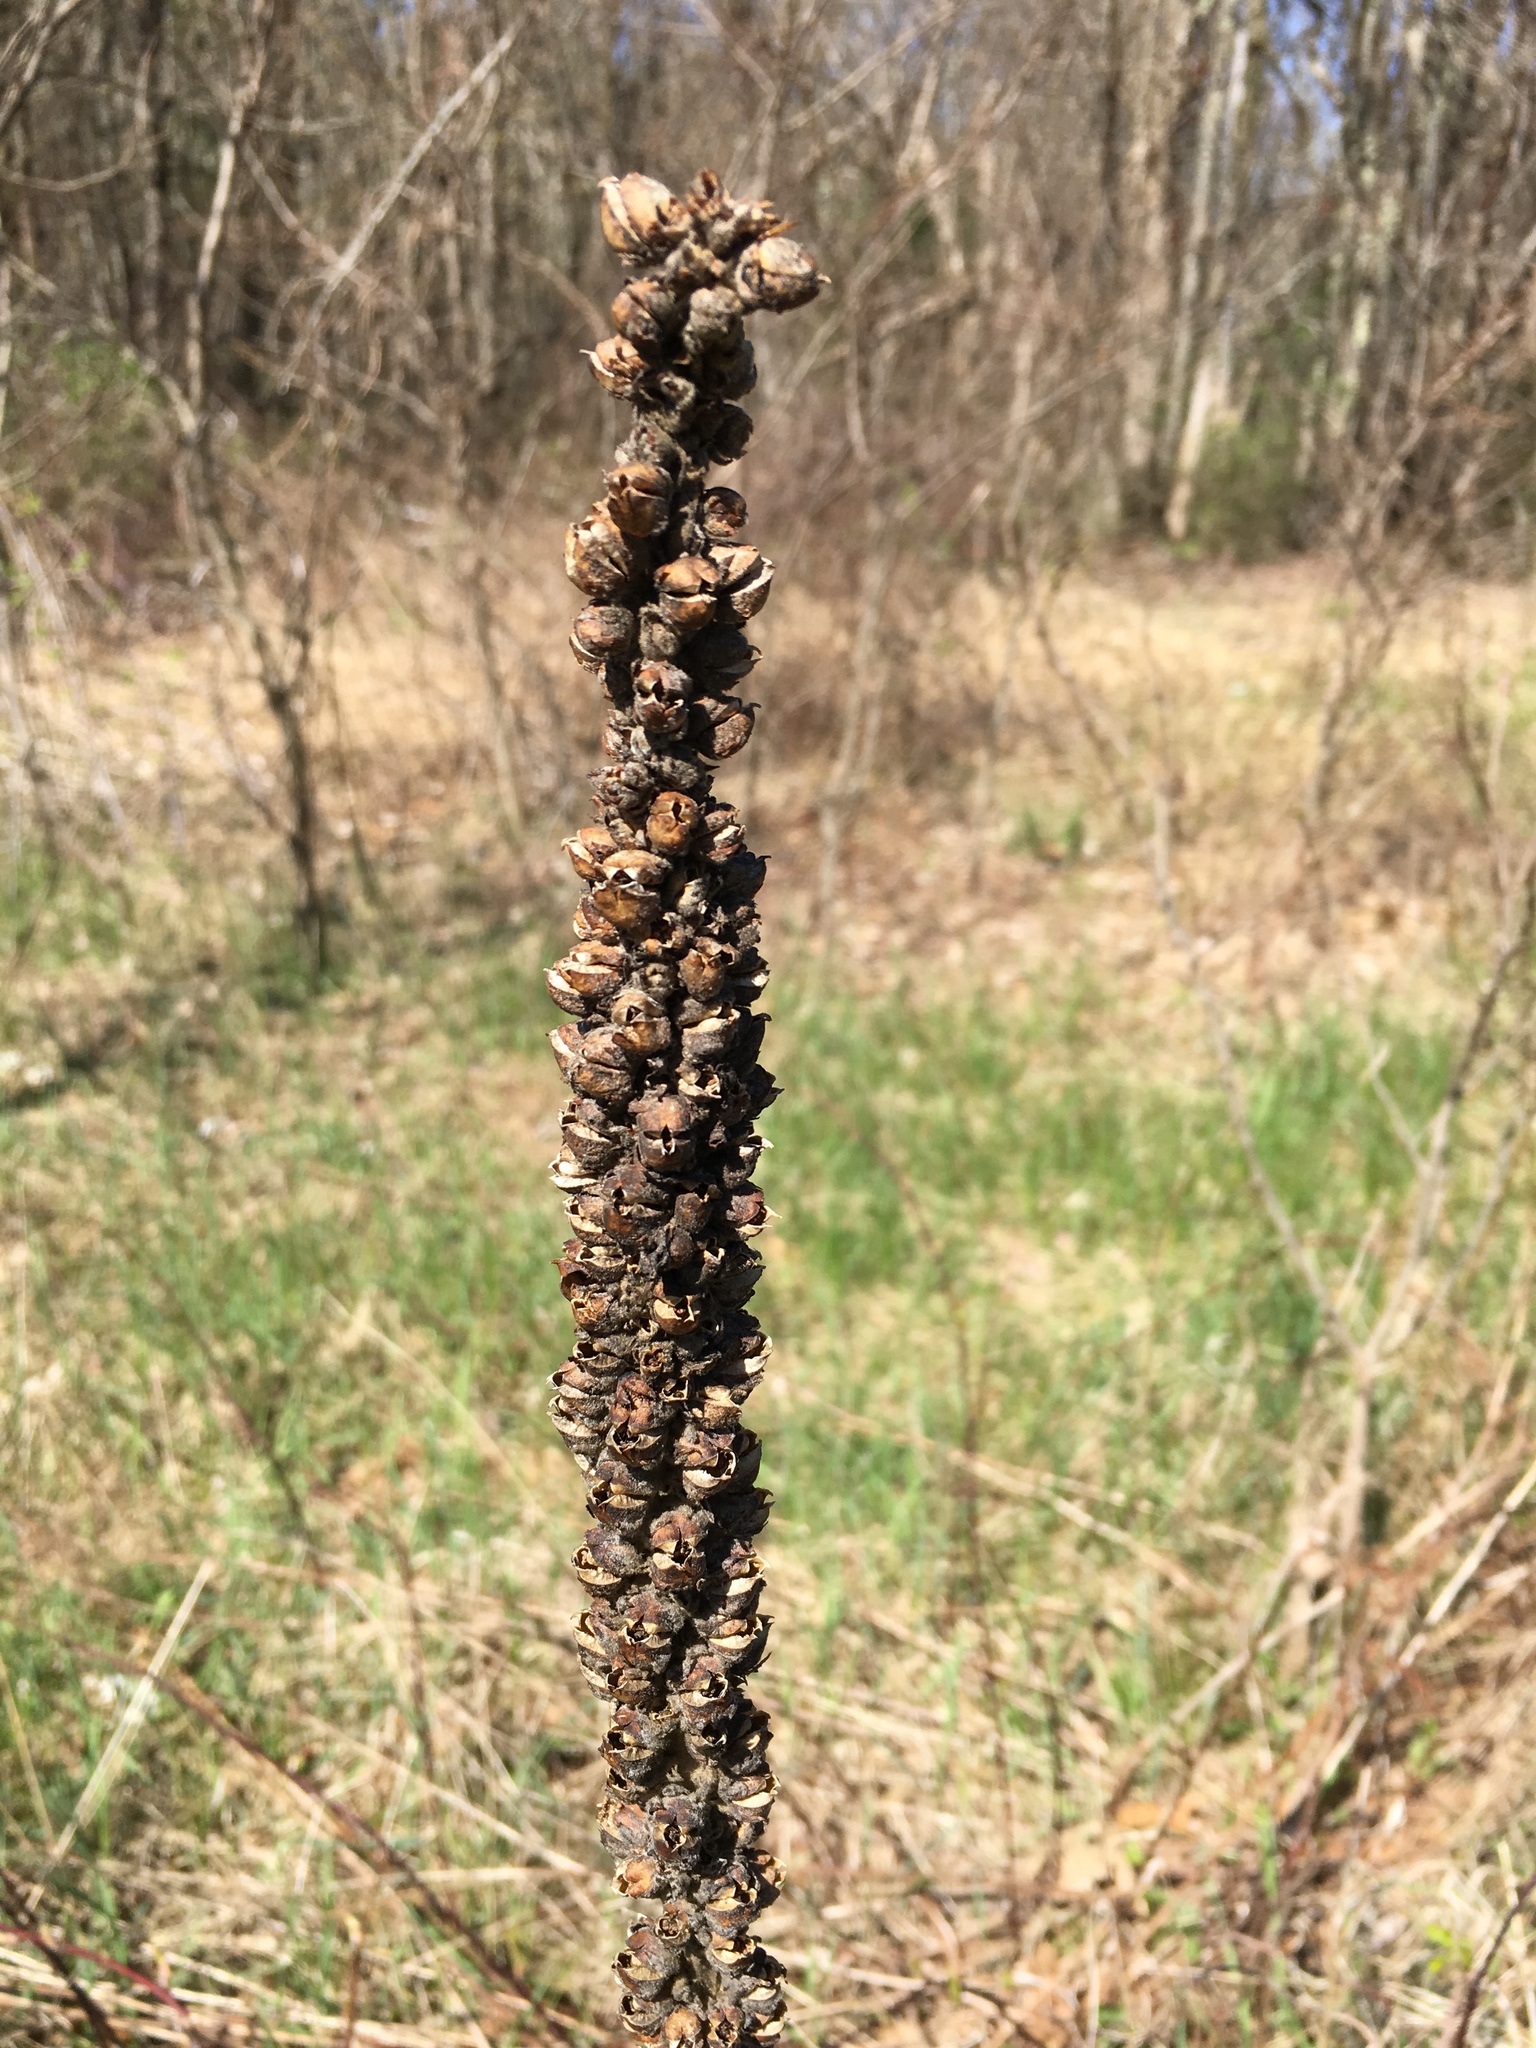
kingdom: Plantae
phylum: Tracheophyta
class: Magnoliopsida
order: Lamiales
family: Scrophulariaceae
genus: Verbascum
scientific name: Verbascum thapsus
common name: Common mullein
